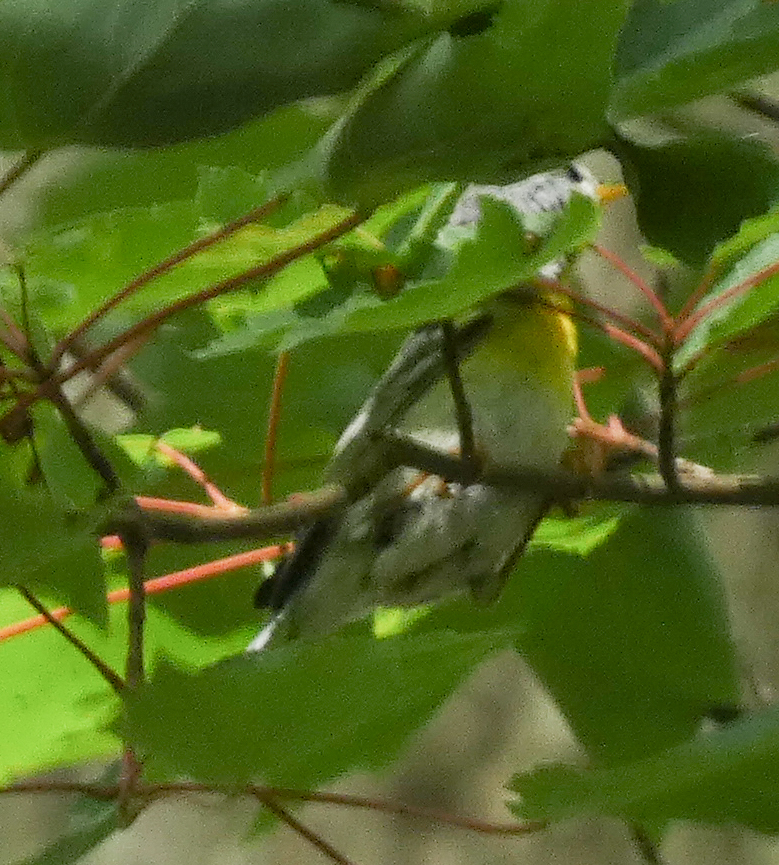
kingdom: Animalia
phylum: Chordata
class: Aves
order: Passeriformes
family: Parulidae
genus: Setophaga
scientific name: Setophaga americana
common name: Northern parula
